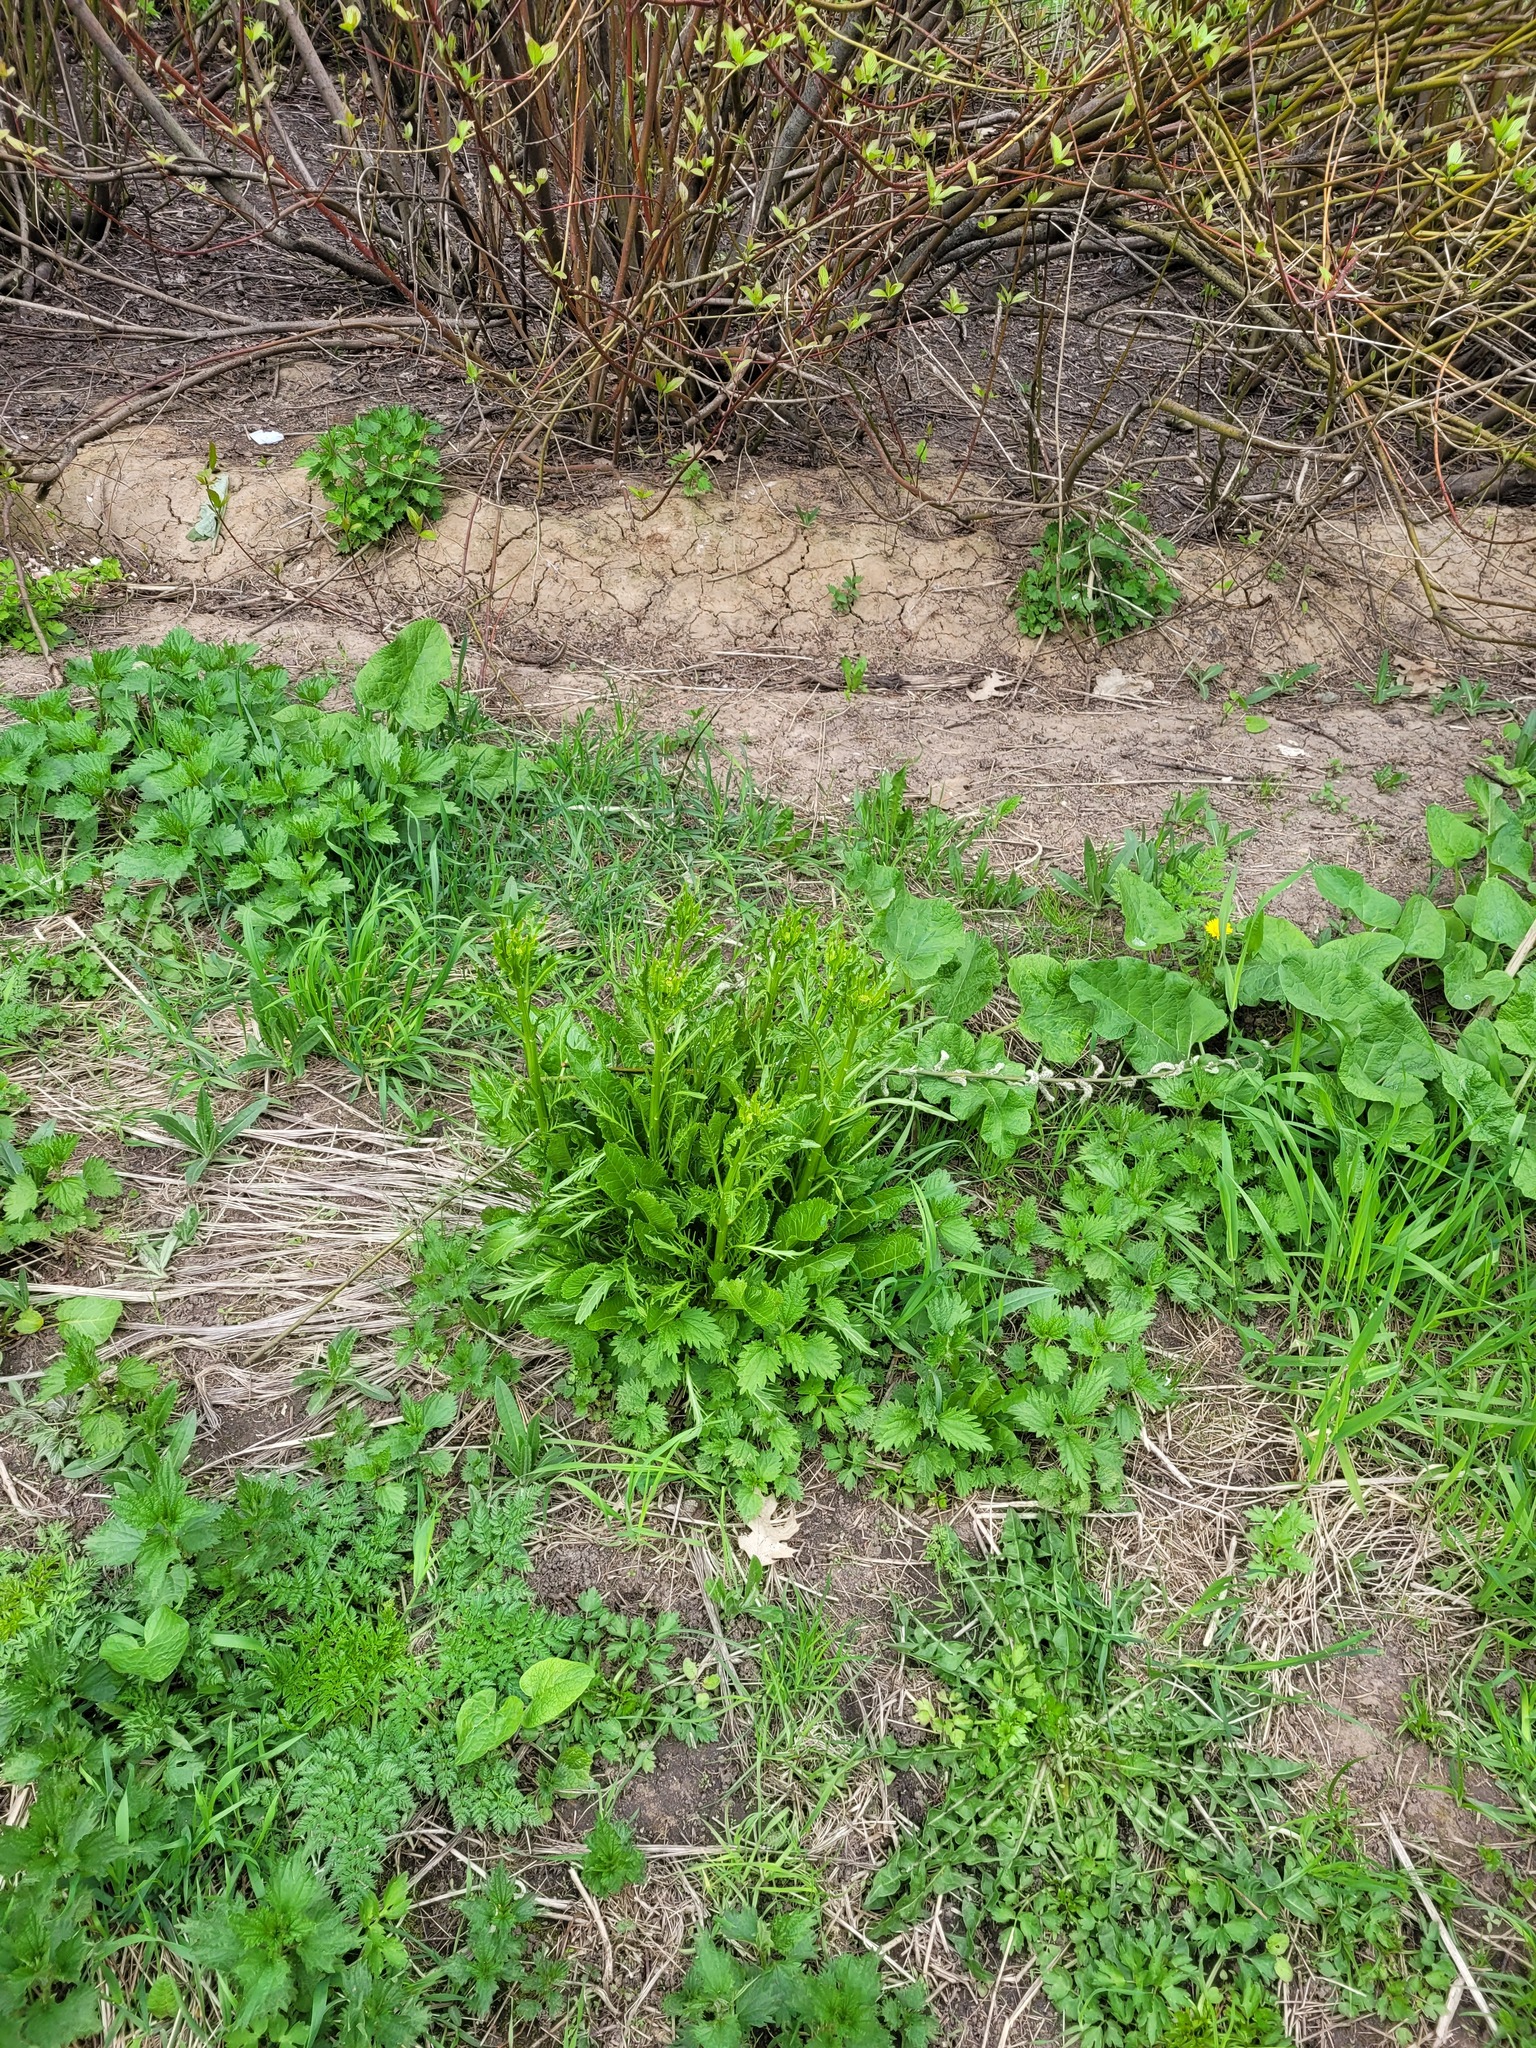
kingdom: Plantae
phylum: Tracheophyta
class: Magnoliopsida
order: Brassicales
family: Brassicaceae
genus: Armoracia
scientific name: Armoracia rusticana
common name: Horseradish
